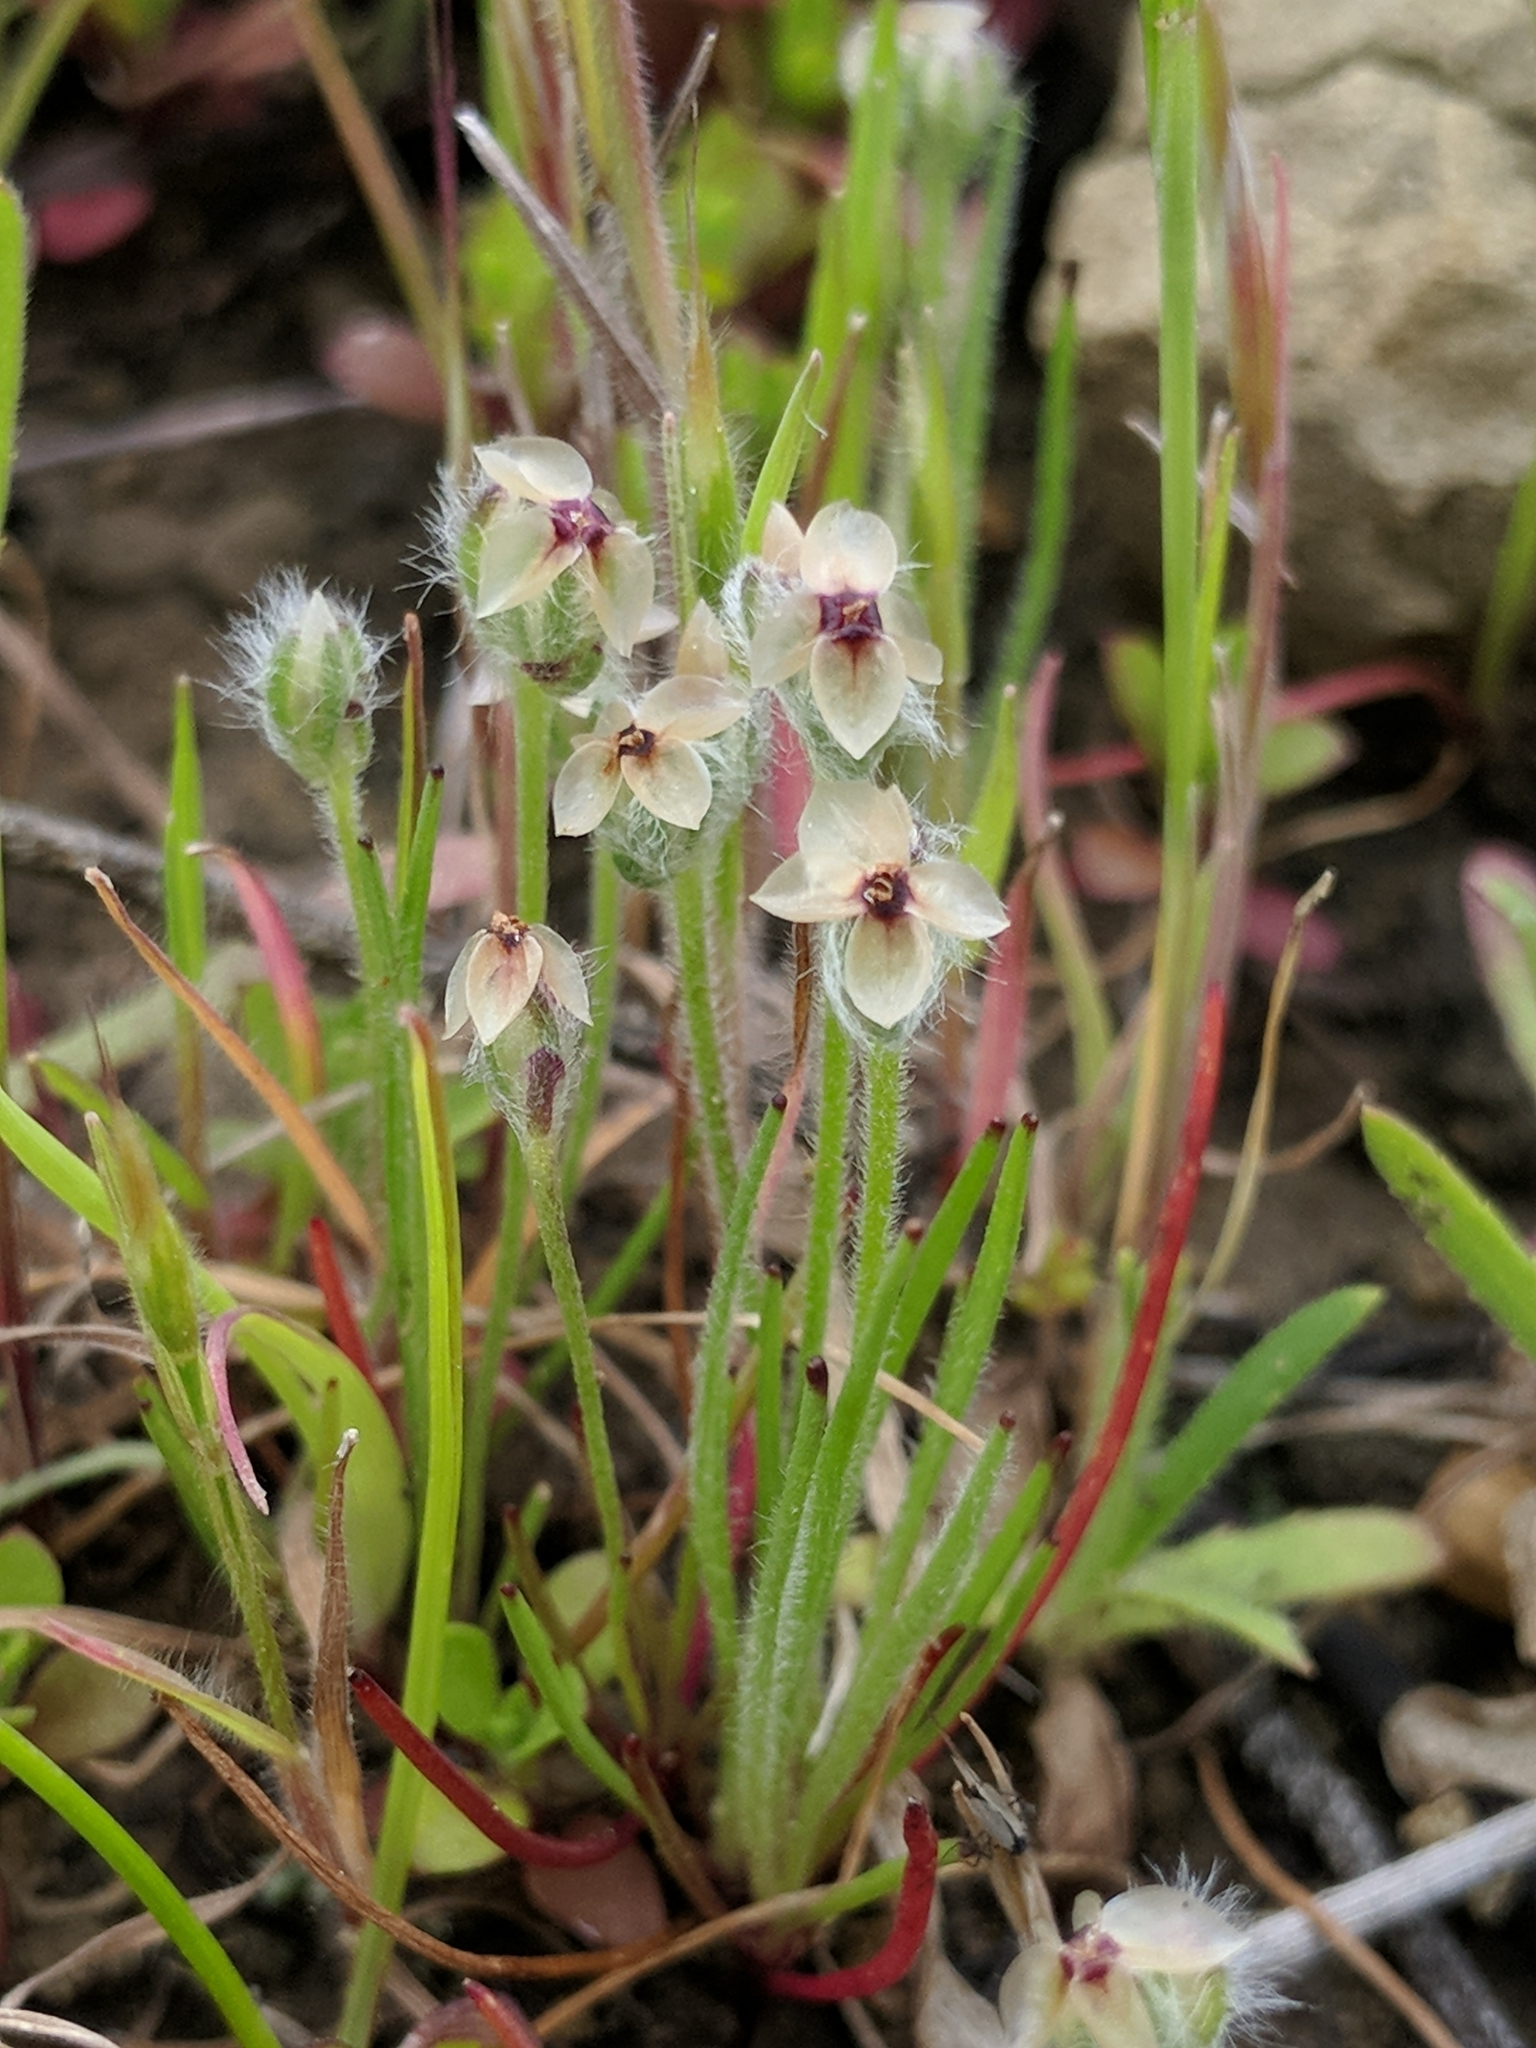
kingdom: Plantae
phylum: Tracheophyta
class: Magnoliopsida
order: Lamiales
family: Plantaginaceae
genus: Plantago
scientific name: Plantago erecta
